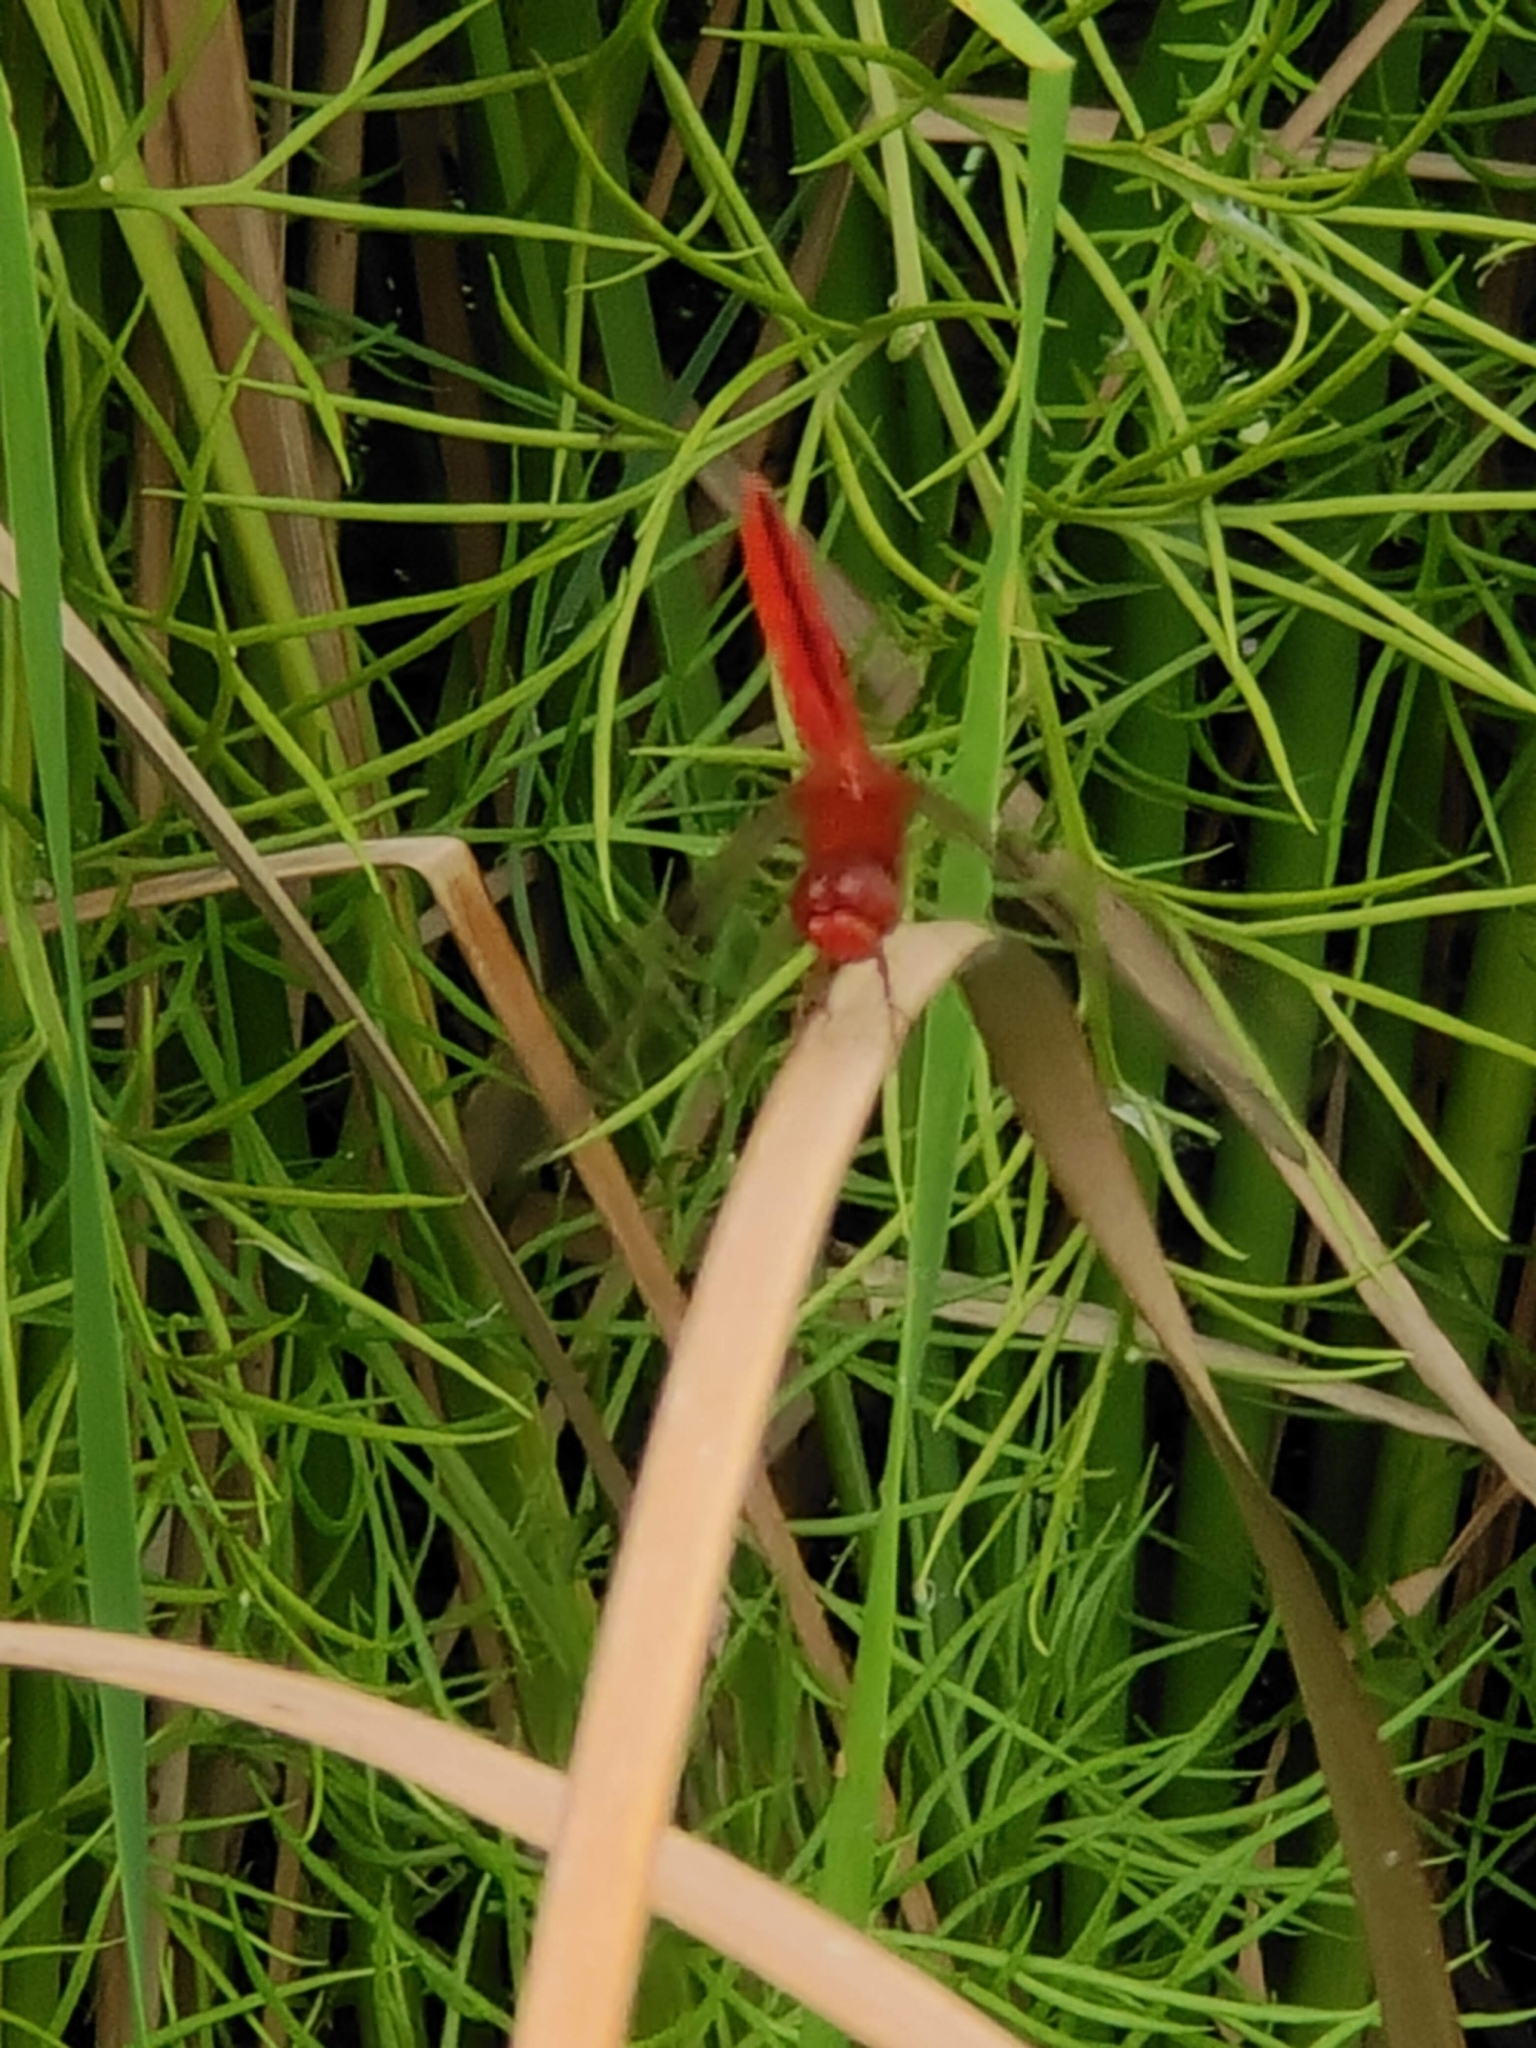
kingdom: Animalia
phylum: Arthropoda
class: Insecta
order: Odonata
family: Libellulidae
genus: Crocothemis
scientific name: Crocothemis servilia
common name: Scarlet skimmer
